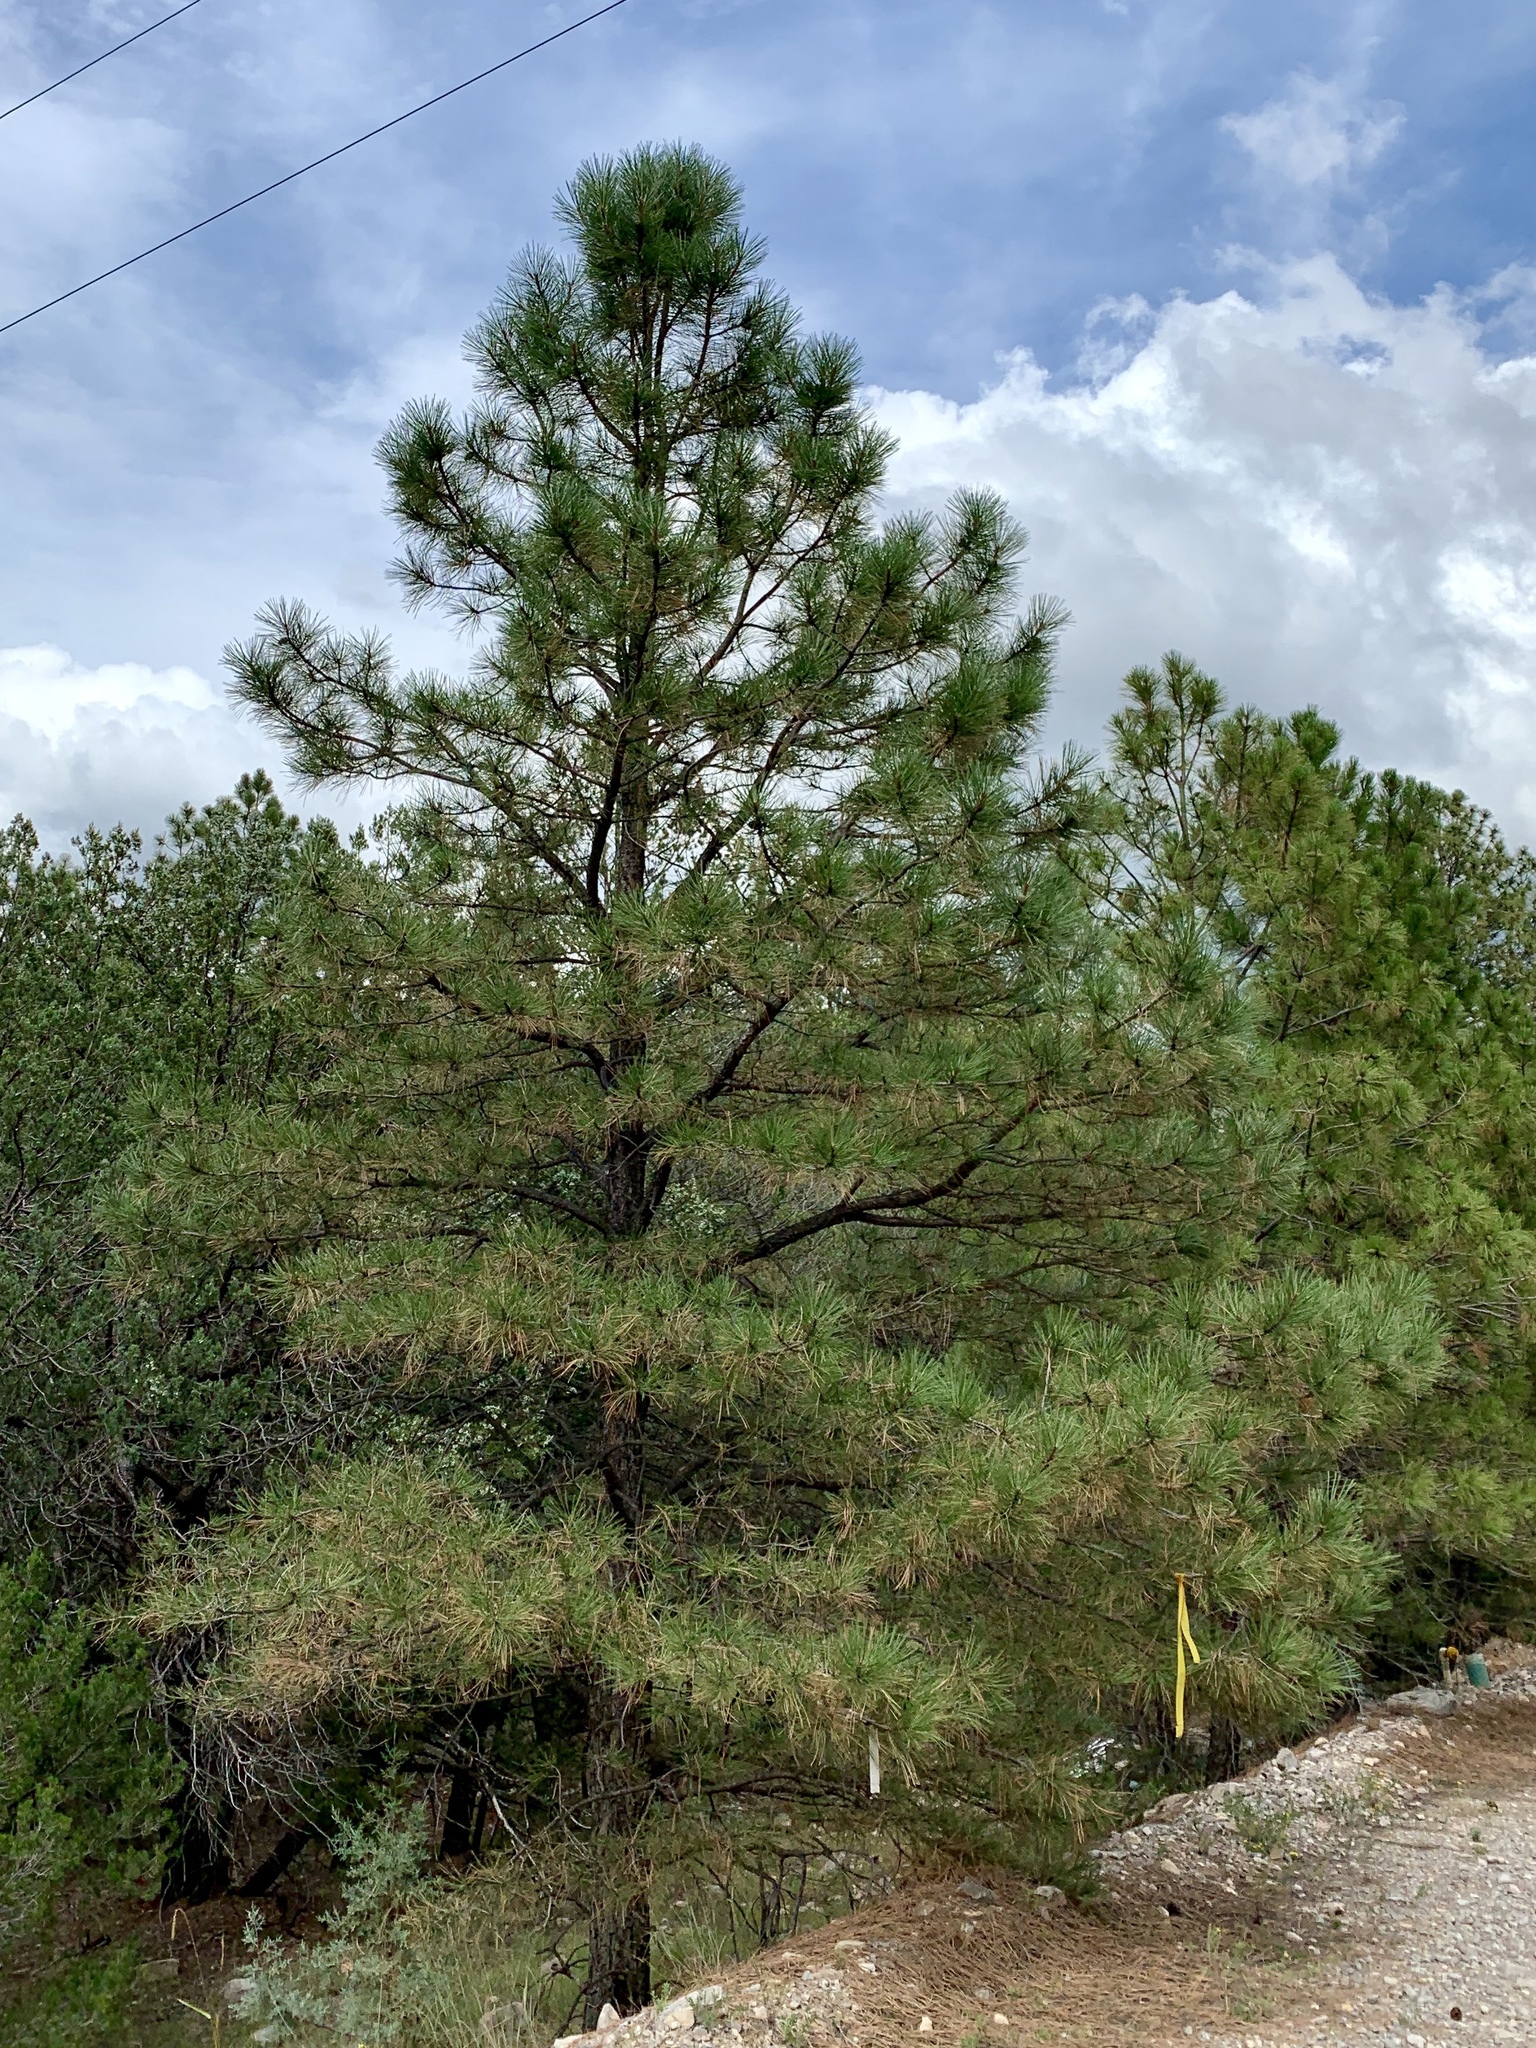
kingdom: Plantae
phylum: Tracheophyta
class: Pinopsida
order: Pinales
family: Pinaceae
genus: Pinus
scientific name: Pinus ponderosa
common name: Western yellow-pine
